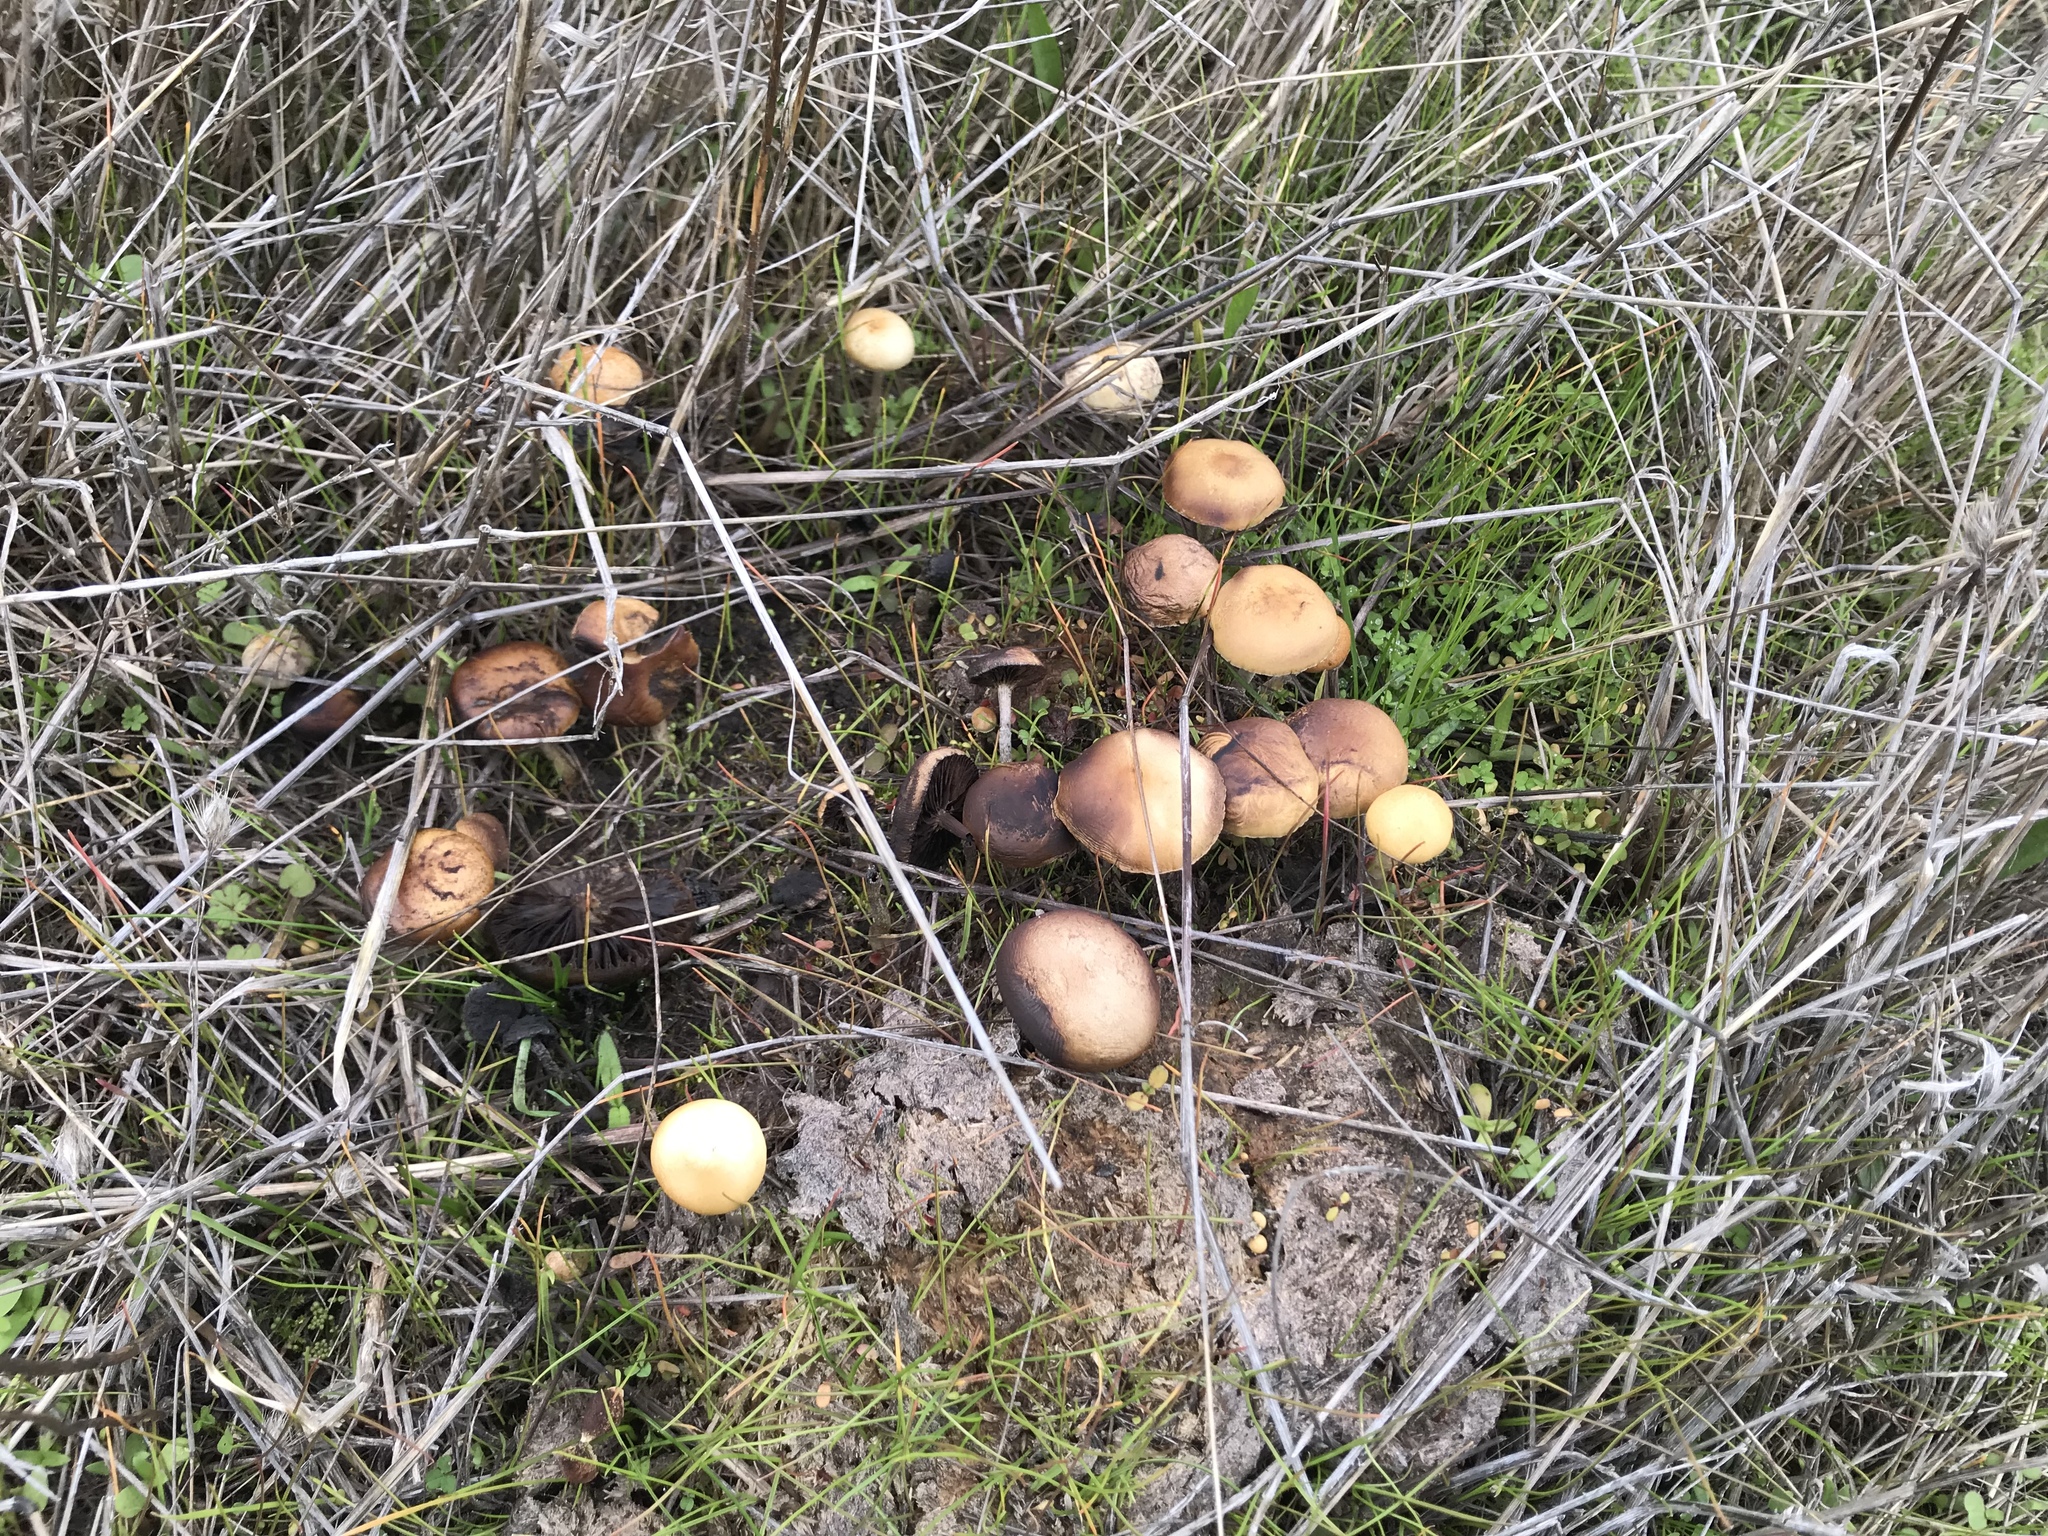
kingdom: Fungi
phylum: Basidiomycota
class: Agaricomycetes
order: Agaricales
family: Strophariaceae
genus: Deconica
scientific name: Deconica coprophila
